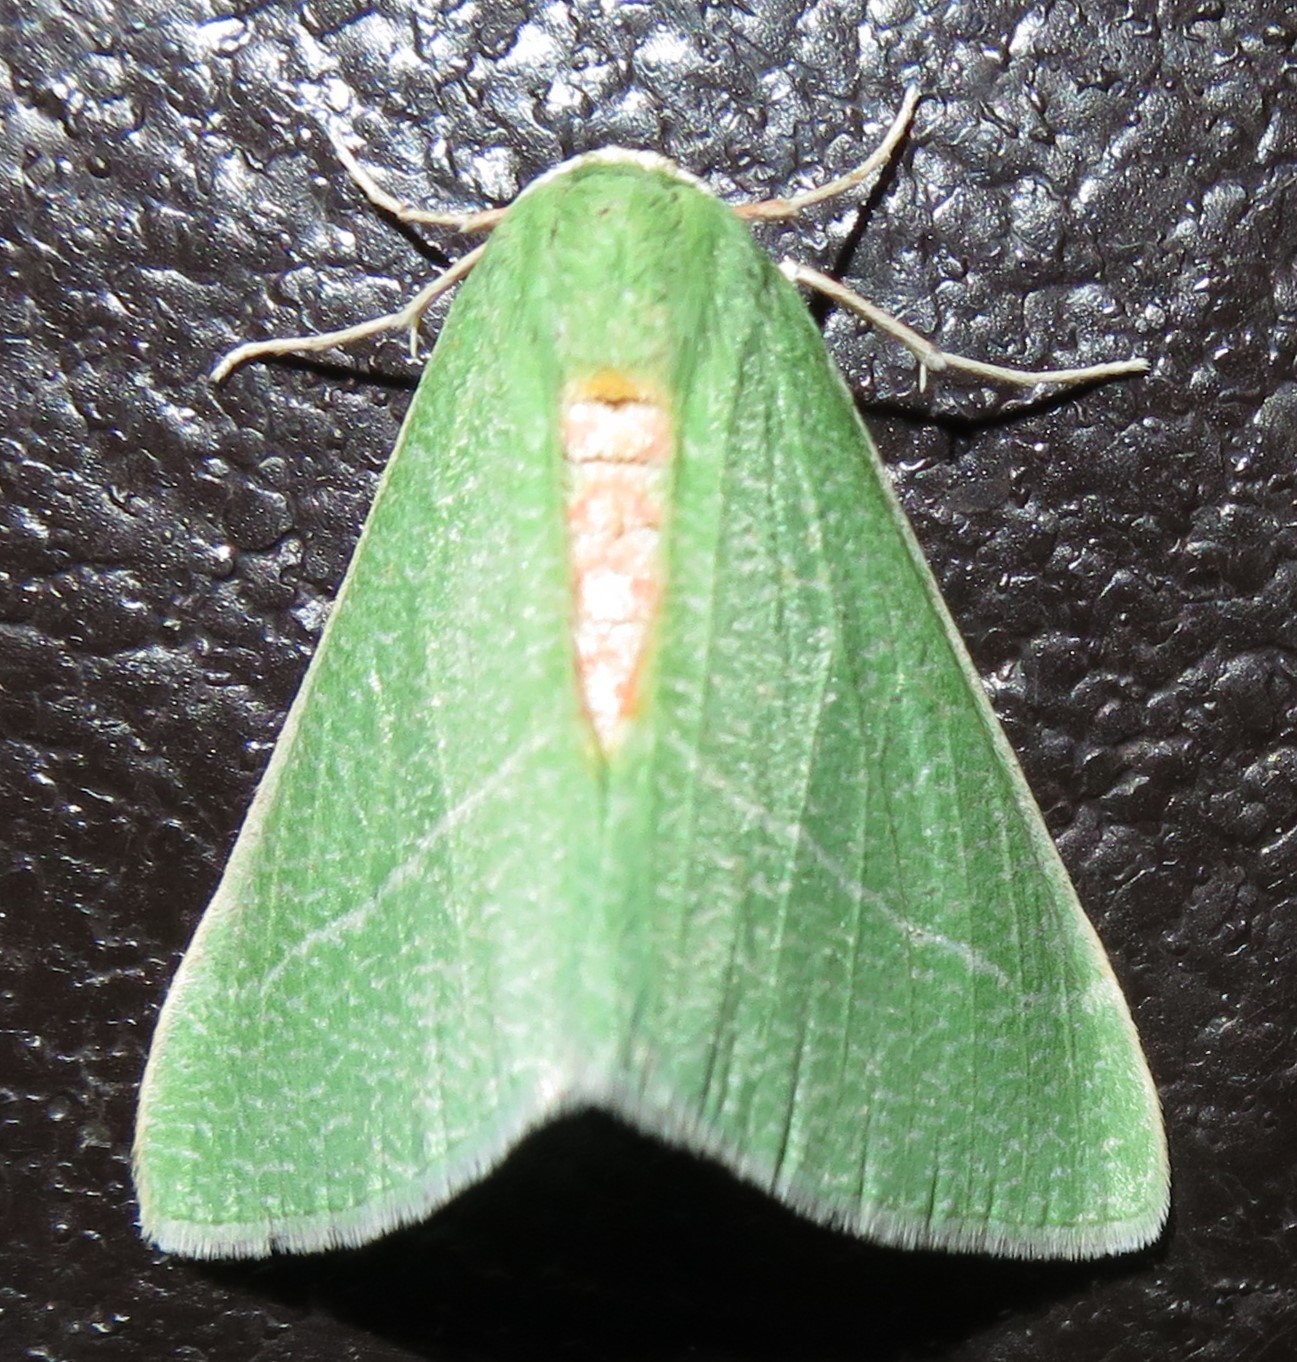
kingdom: Animalia
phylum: Arthropoda
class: Insecta
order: Lepidoptera
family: Geometridae
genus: Chlorosea
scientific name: Chlorosea roseitacta
